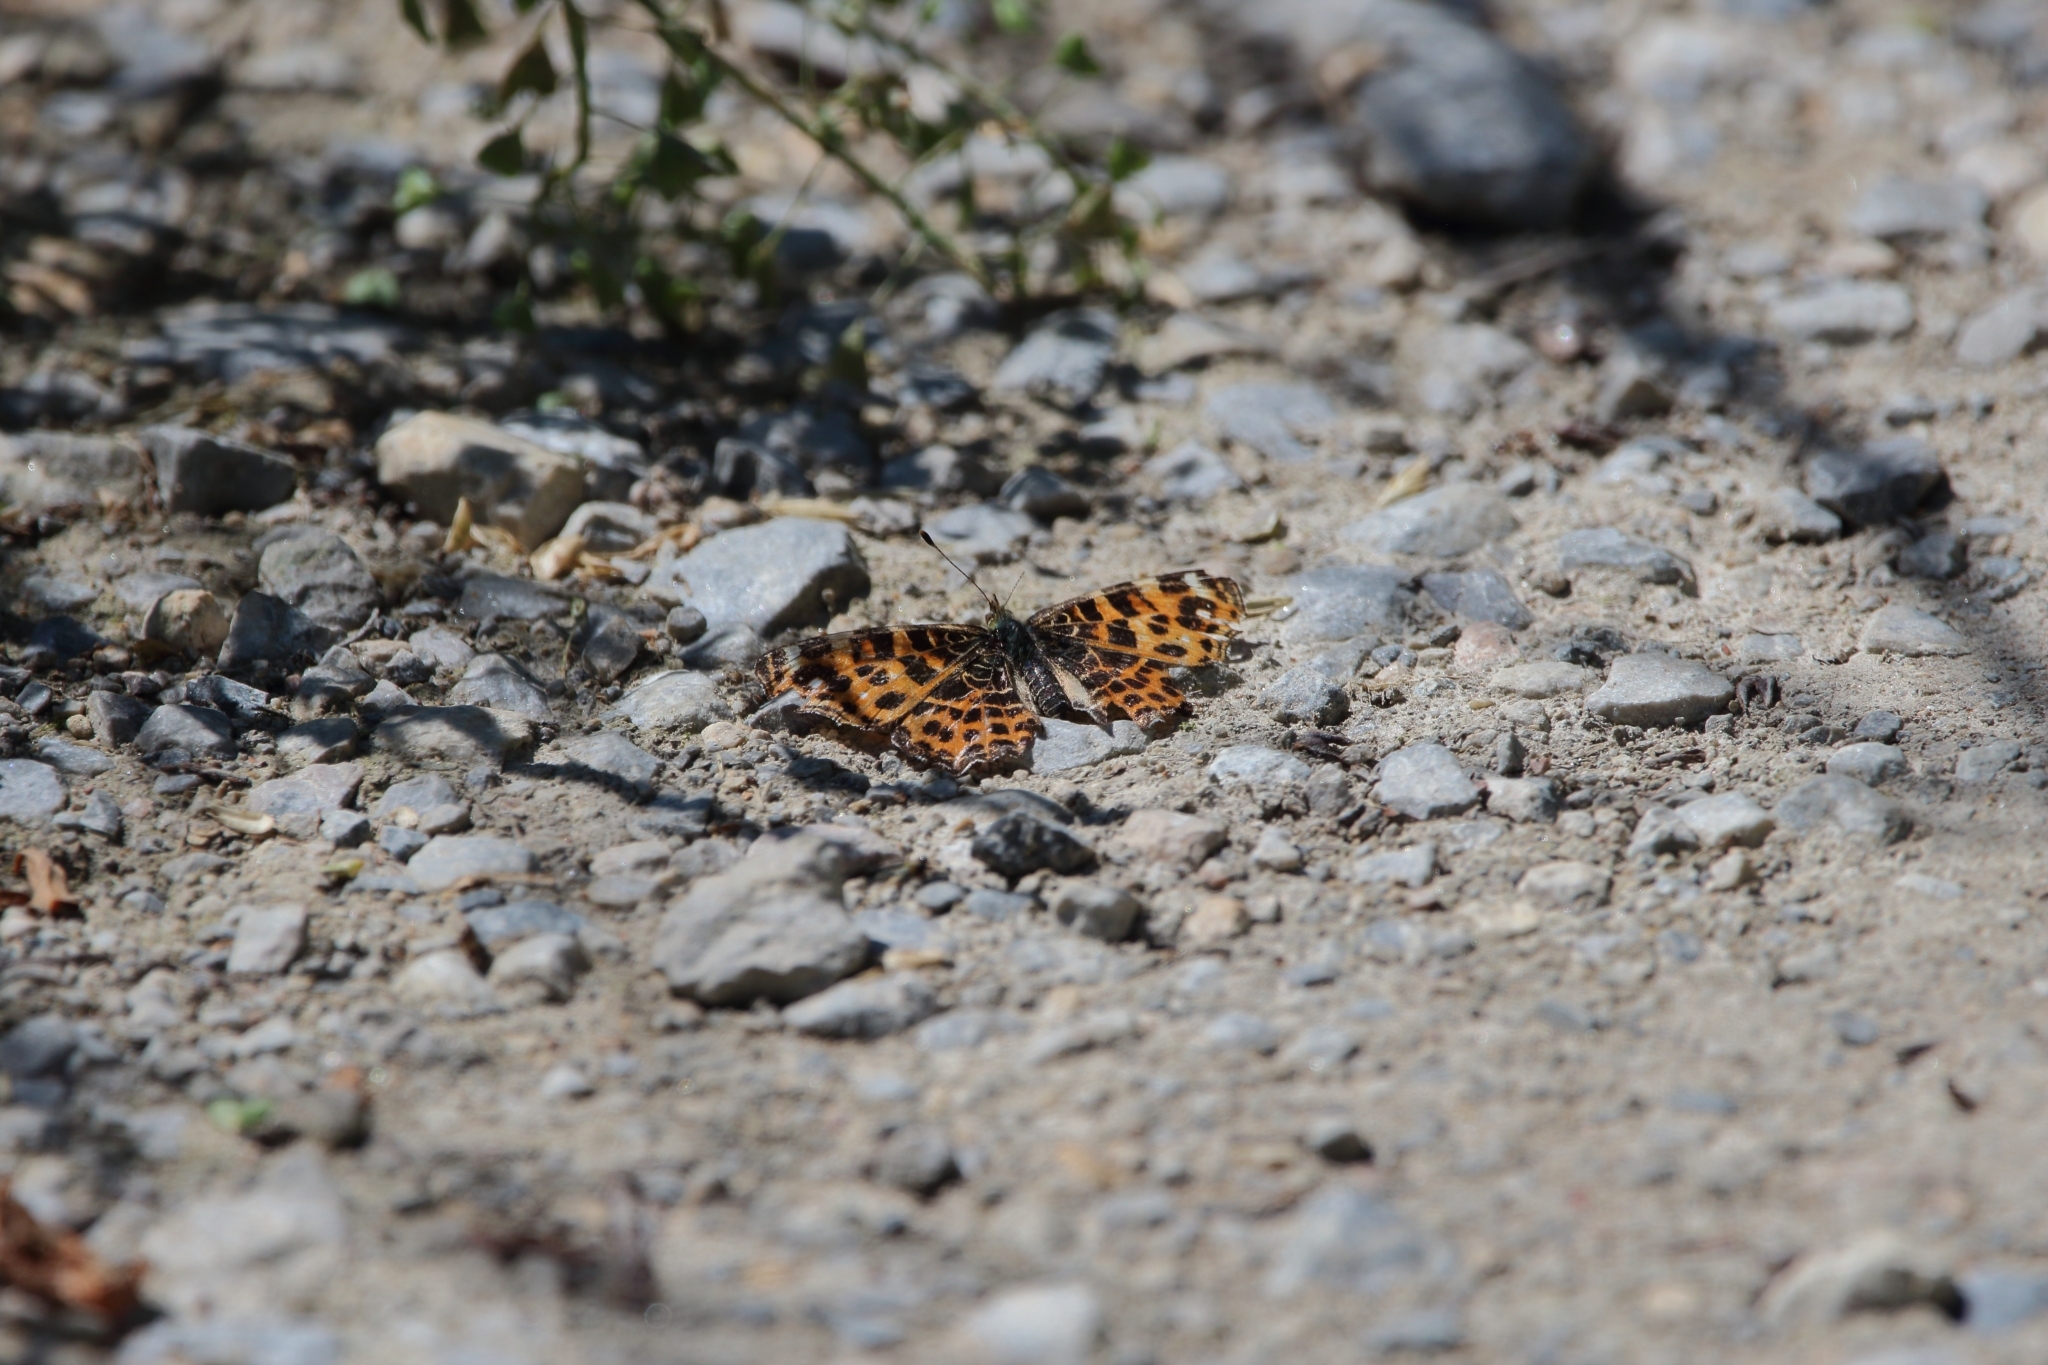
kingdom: Animalia
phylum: Arthropoda
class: Insecta
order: Lepidoptera
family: Nymphalidae
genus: Araschnia
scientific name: Araschnia levana
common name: Map butterfly
